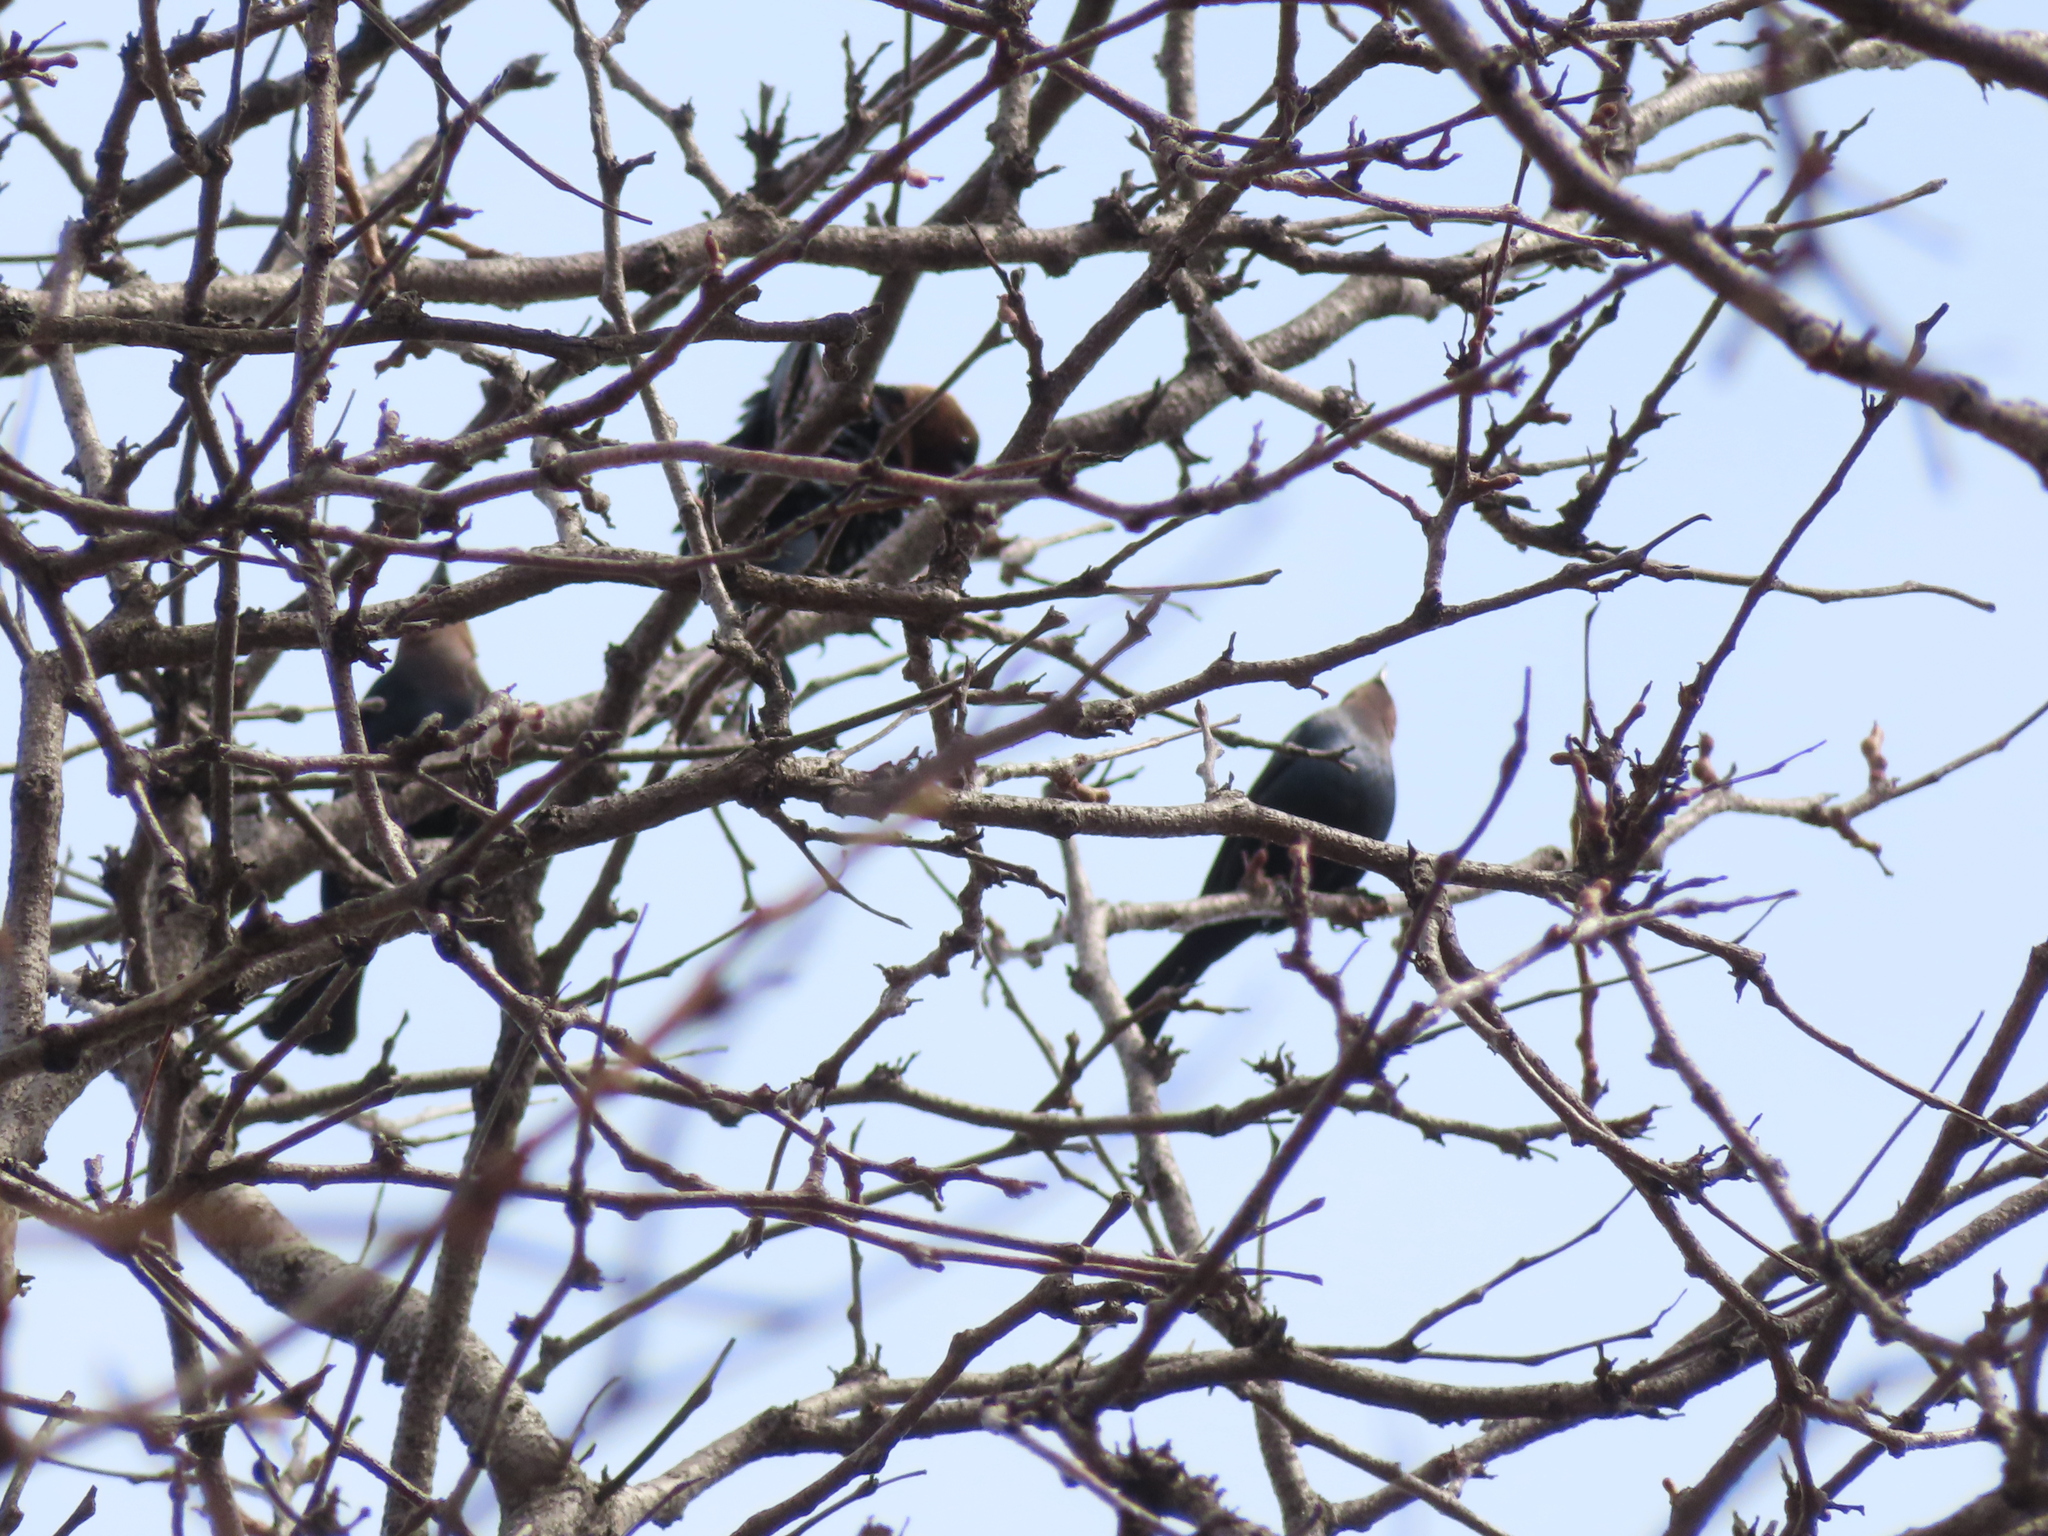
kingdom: Animalia
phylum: Chordata
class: Aves
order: Passeriformes
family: Icteridae
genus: Molothrus
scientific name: Molothrus ater
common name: Brown-headed cowbird
